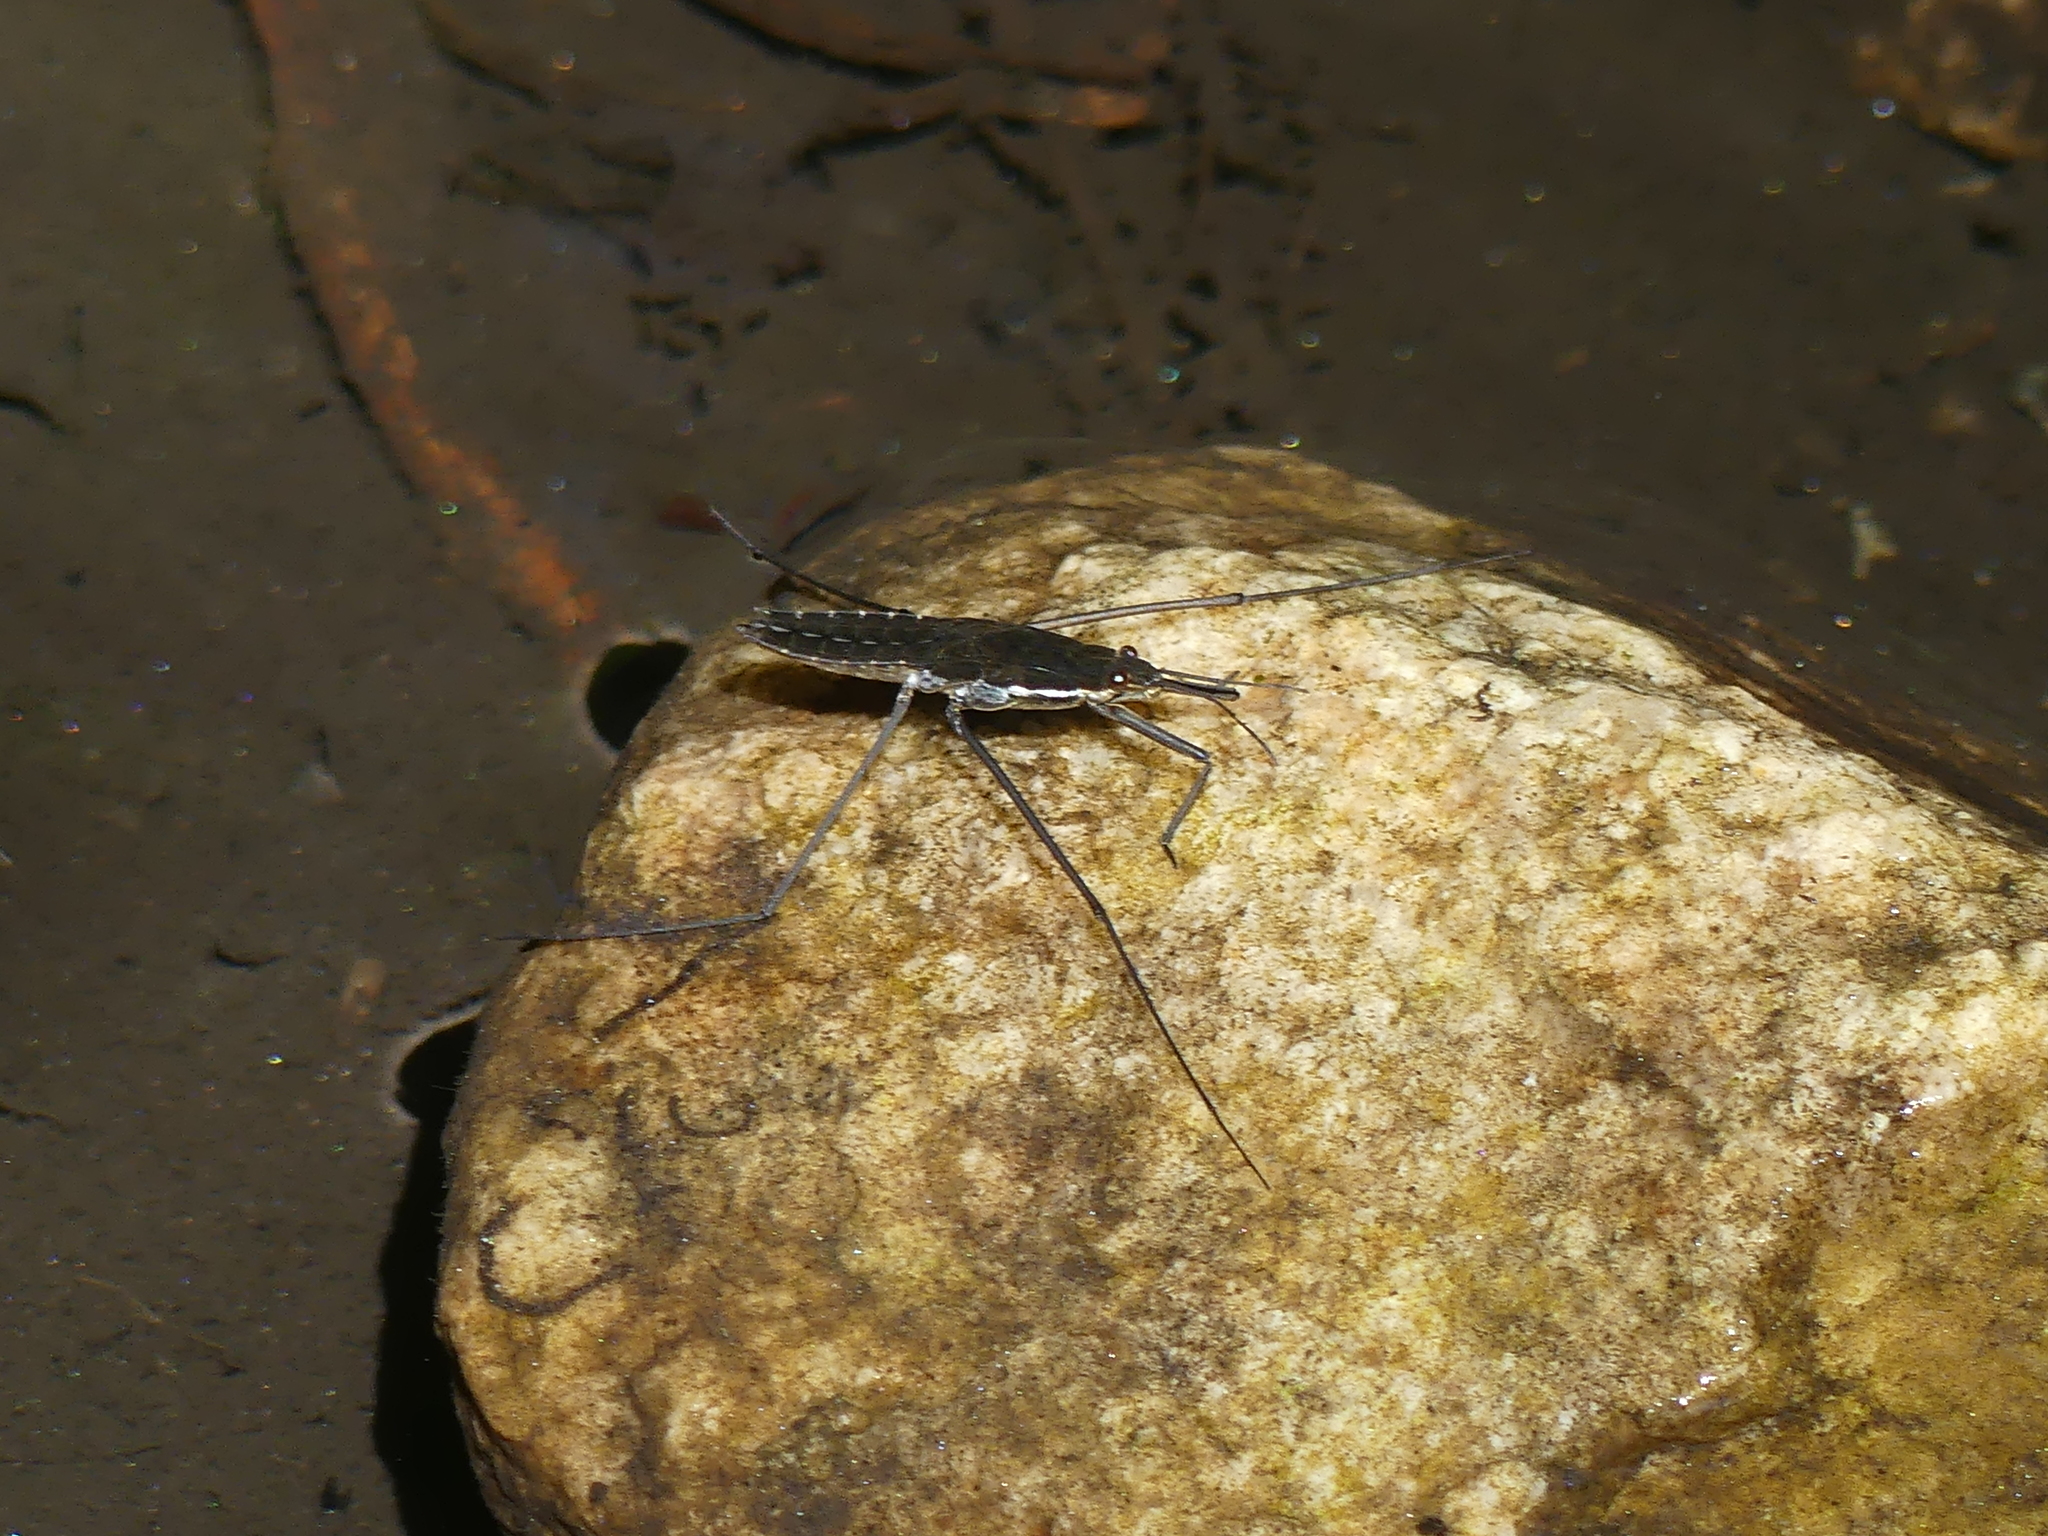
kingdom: Animalia
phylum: Arthropoda
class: Insecta
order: Hemiptera
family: Gerridae
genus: Aquarius
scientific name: Aquarius remigis
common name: Common water strider
